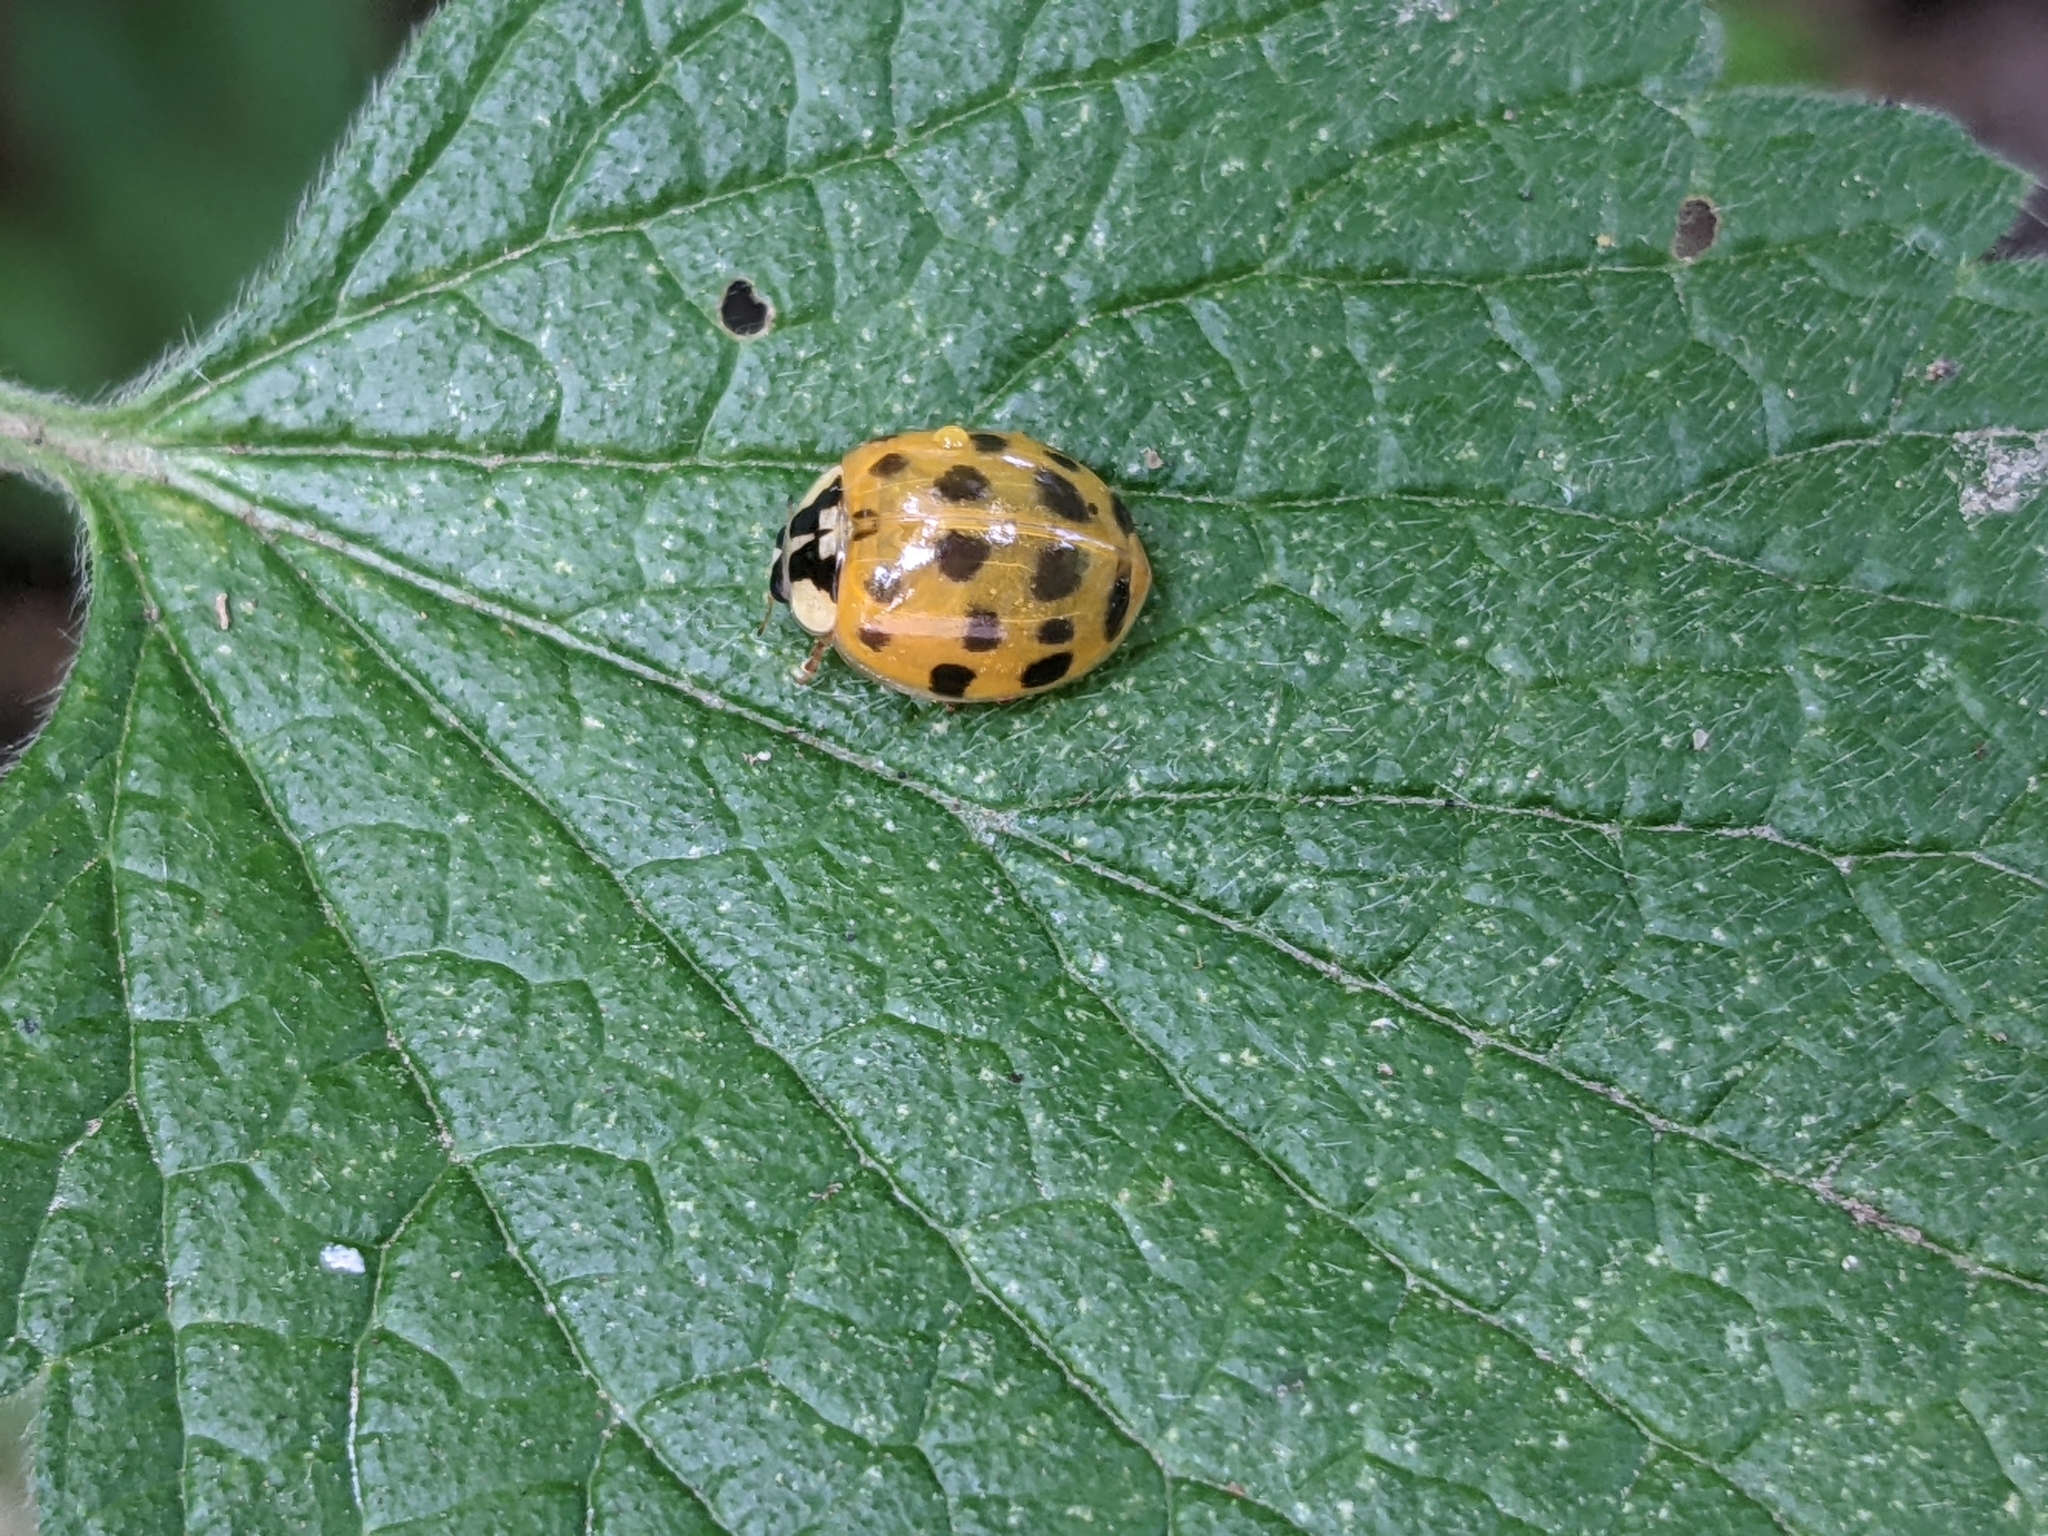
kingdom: Animalia
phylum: Arthropoda
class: Insecta
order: Coleoptera
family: Coccinellidae
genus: Harmonia
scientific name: Harmonia axyridis
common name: Harlequin ladybird
